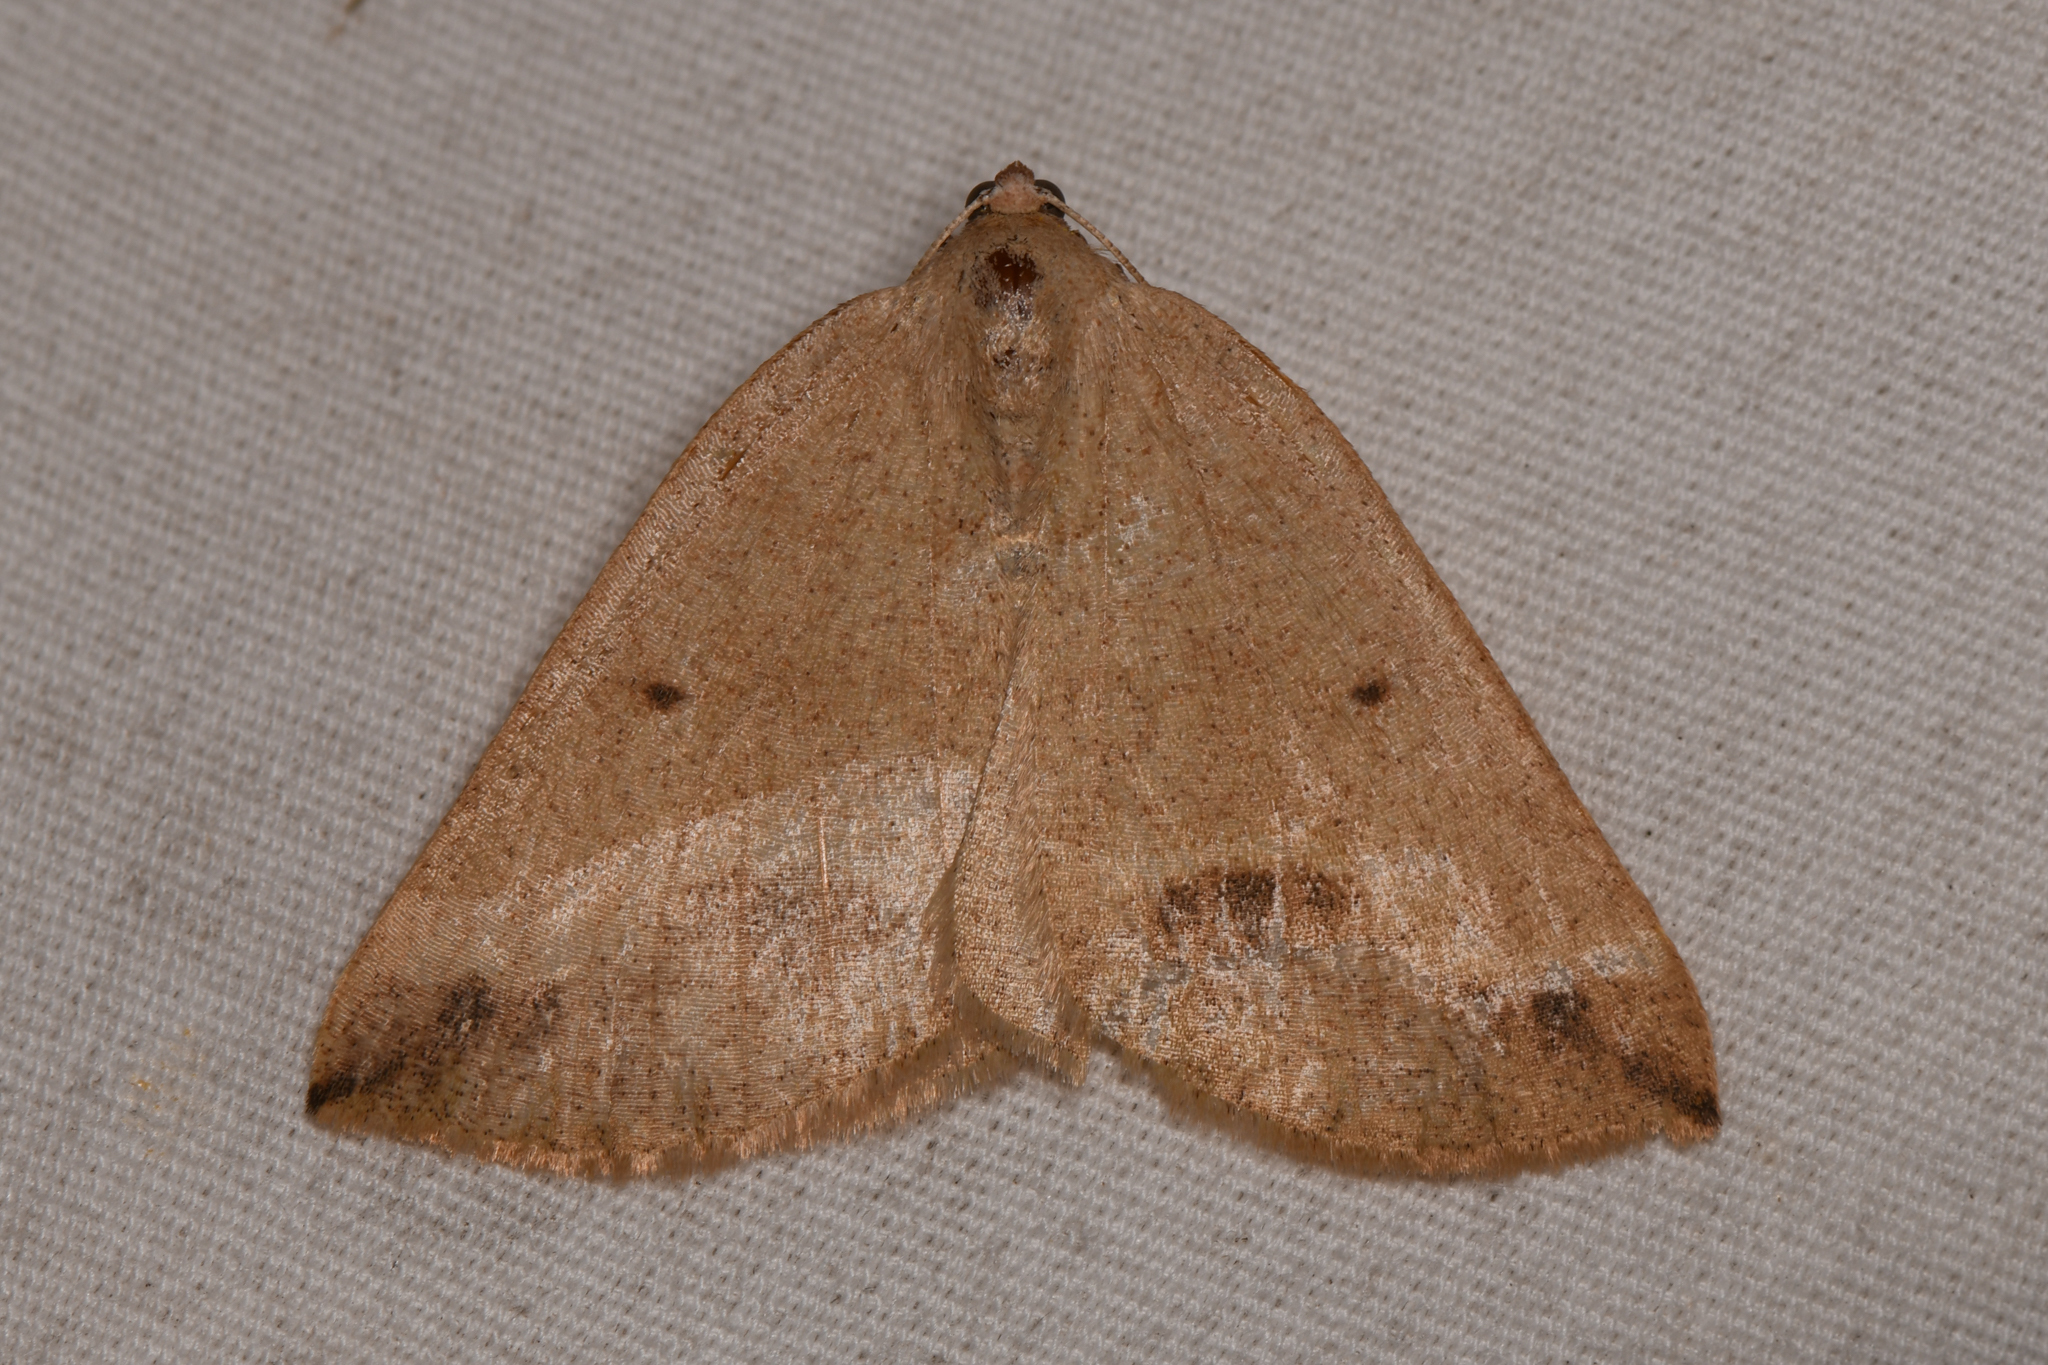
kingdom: Animalia
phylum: Arthropoda
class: Insecta
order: Lepidoptera
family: Geometridae
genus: Drepanulatrix
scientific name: Drepanulatrix unicalcararia
